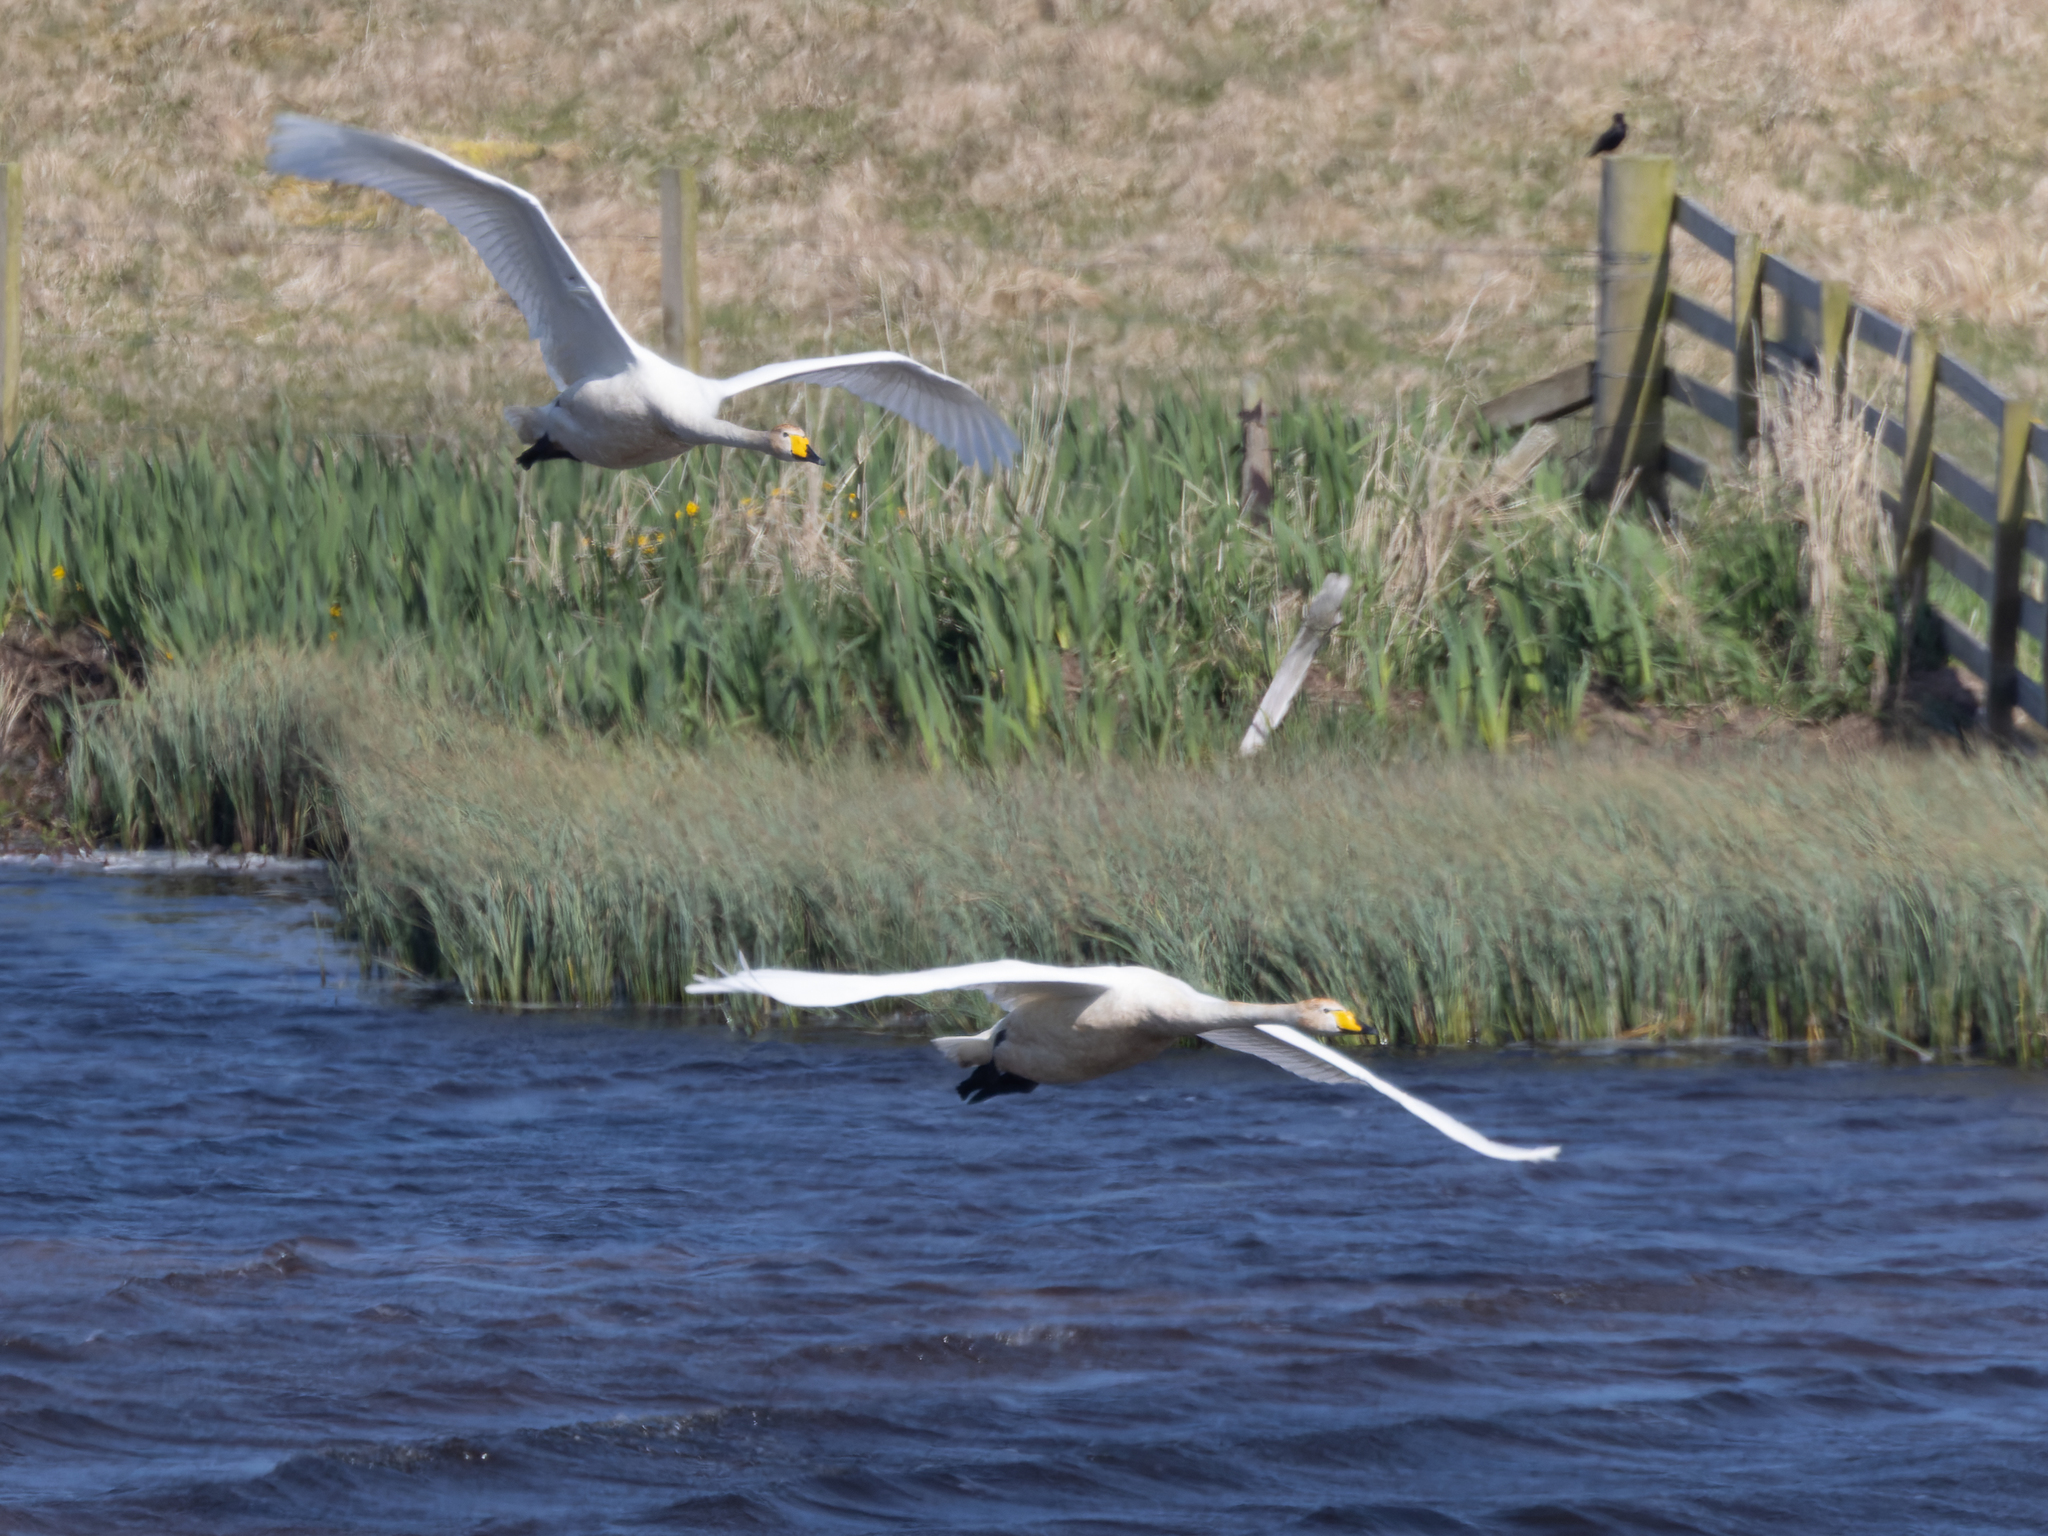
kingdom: Animalia
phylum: Chordata
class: Aves
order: Anseriformes
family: Anatidae
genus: Cygnus
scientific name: Cygnus cygnus
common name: Whooper swan
